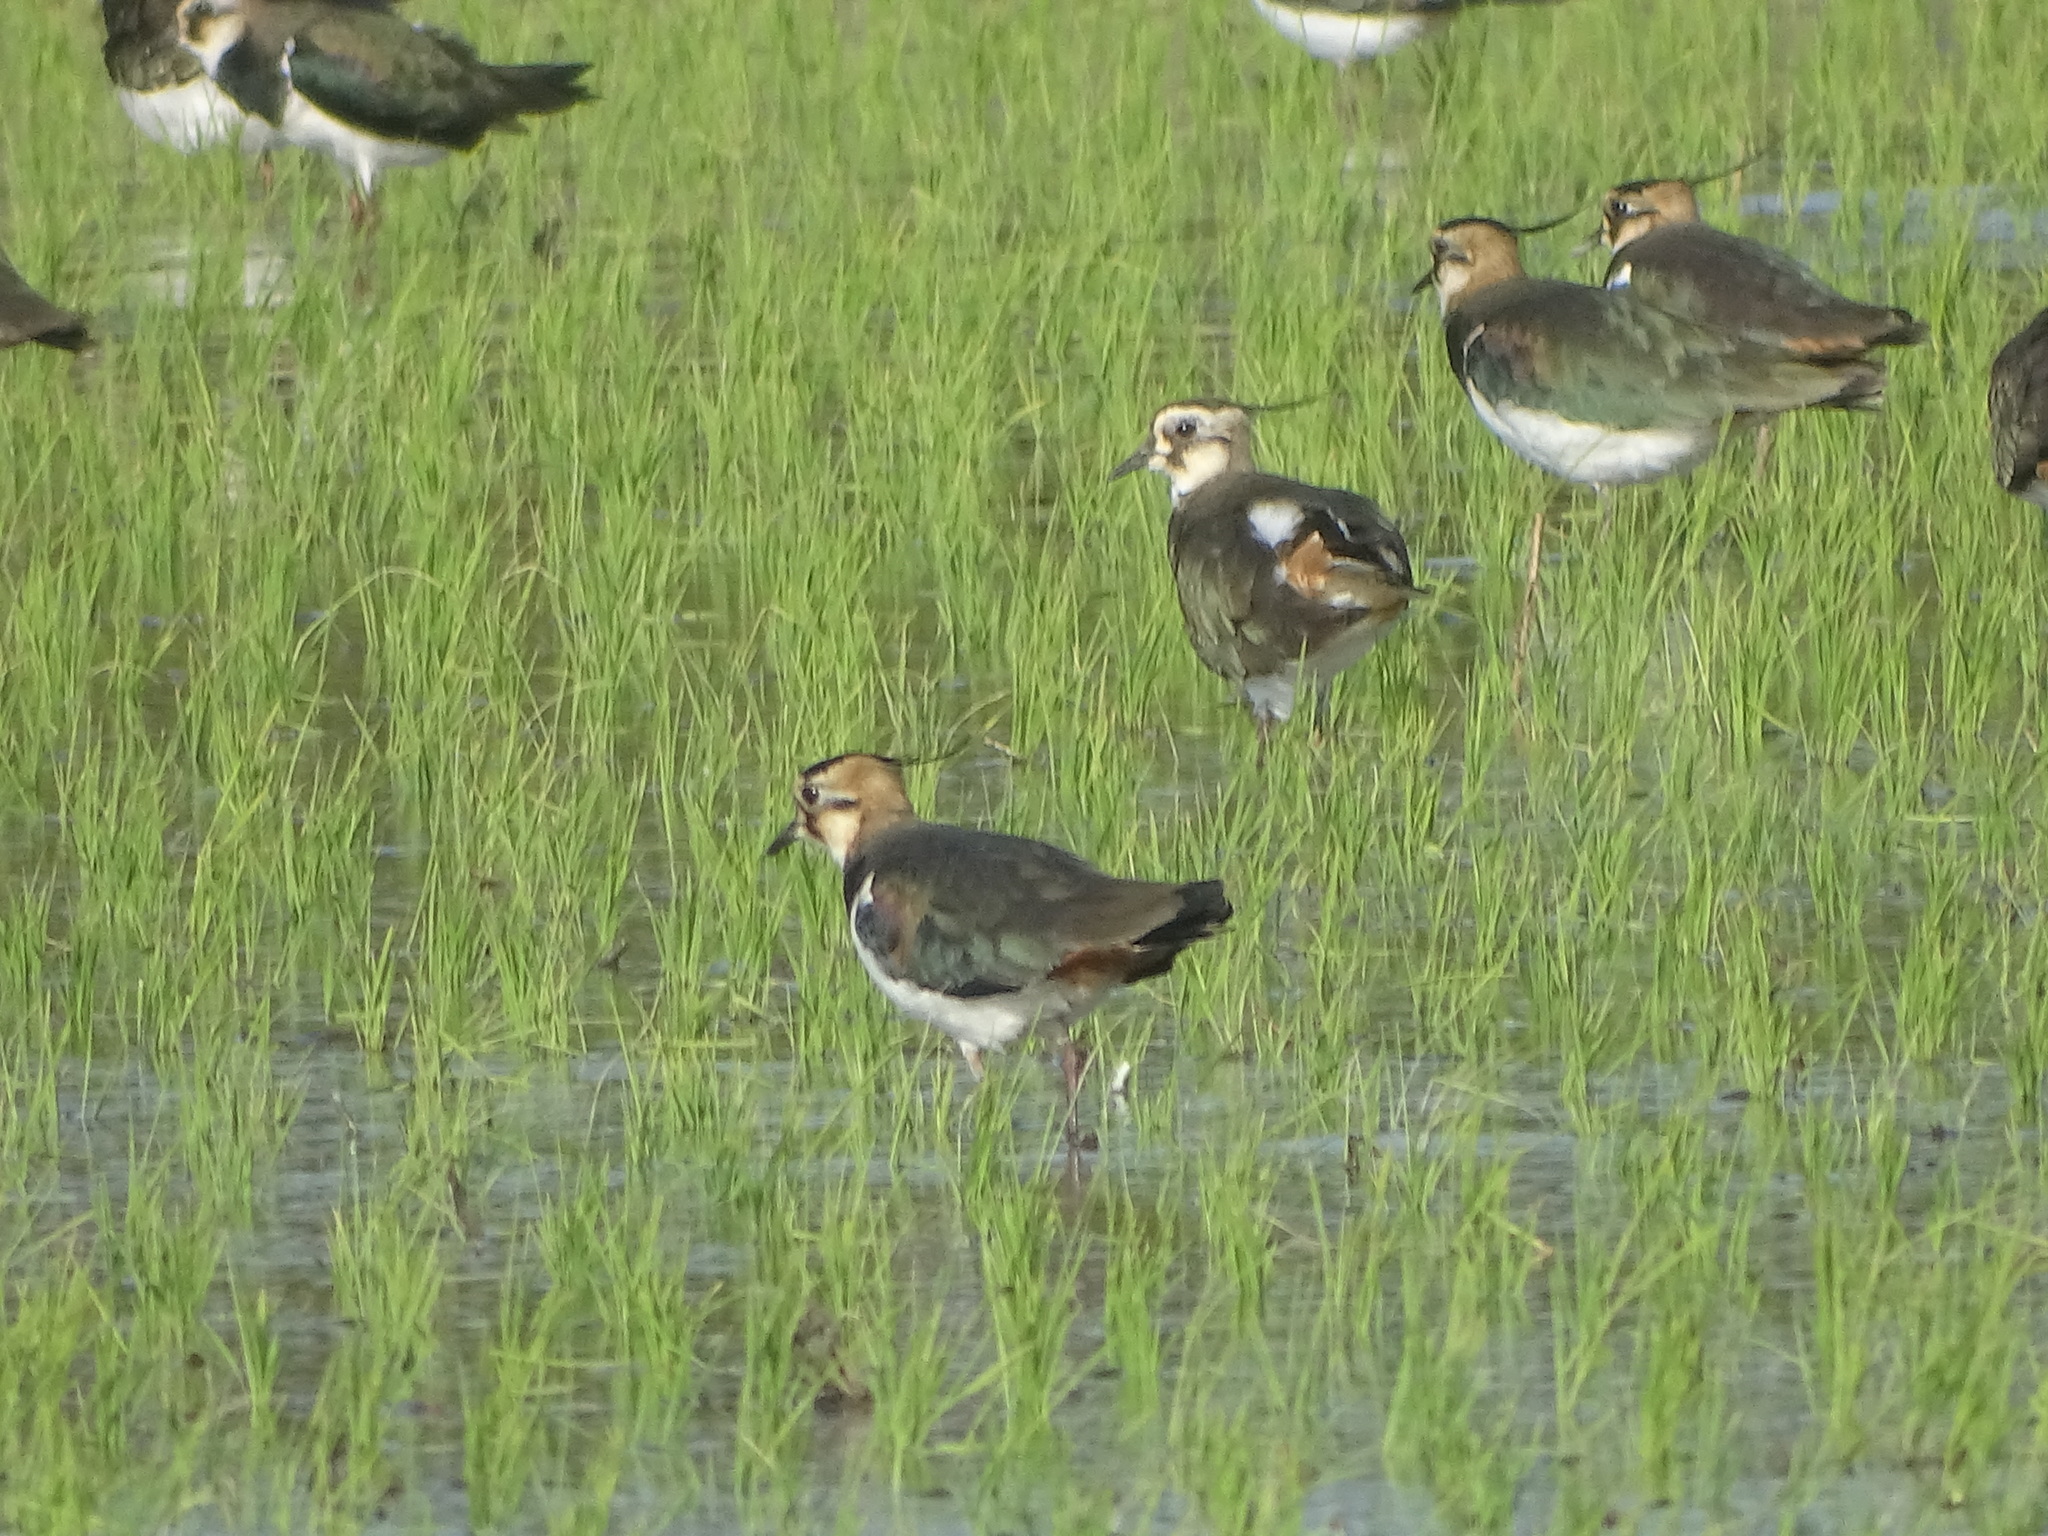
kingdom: Animalia
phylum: Chordata
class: Aves
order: Charadriiformes
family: Charadriidae
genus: Vanellus
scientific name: Vanellus vanellus
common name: Northern lapwing
